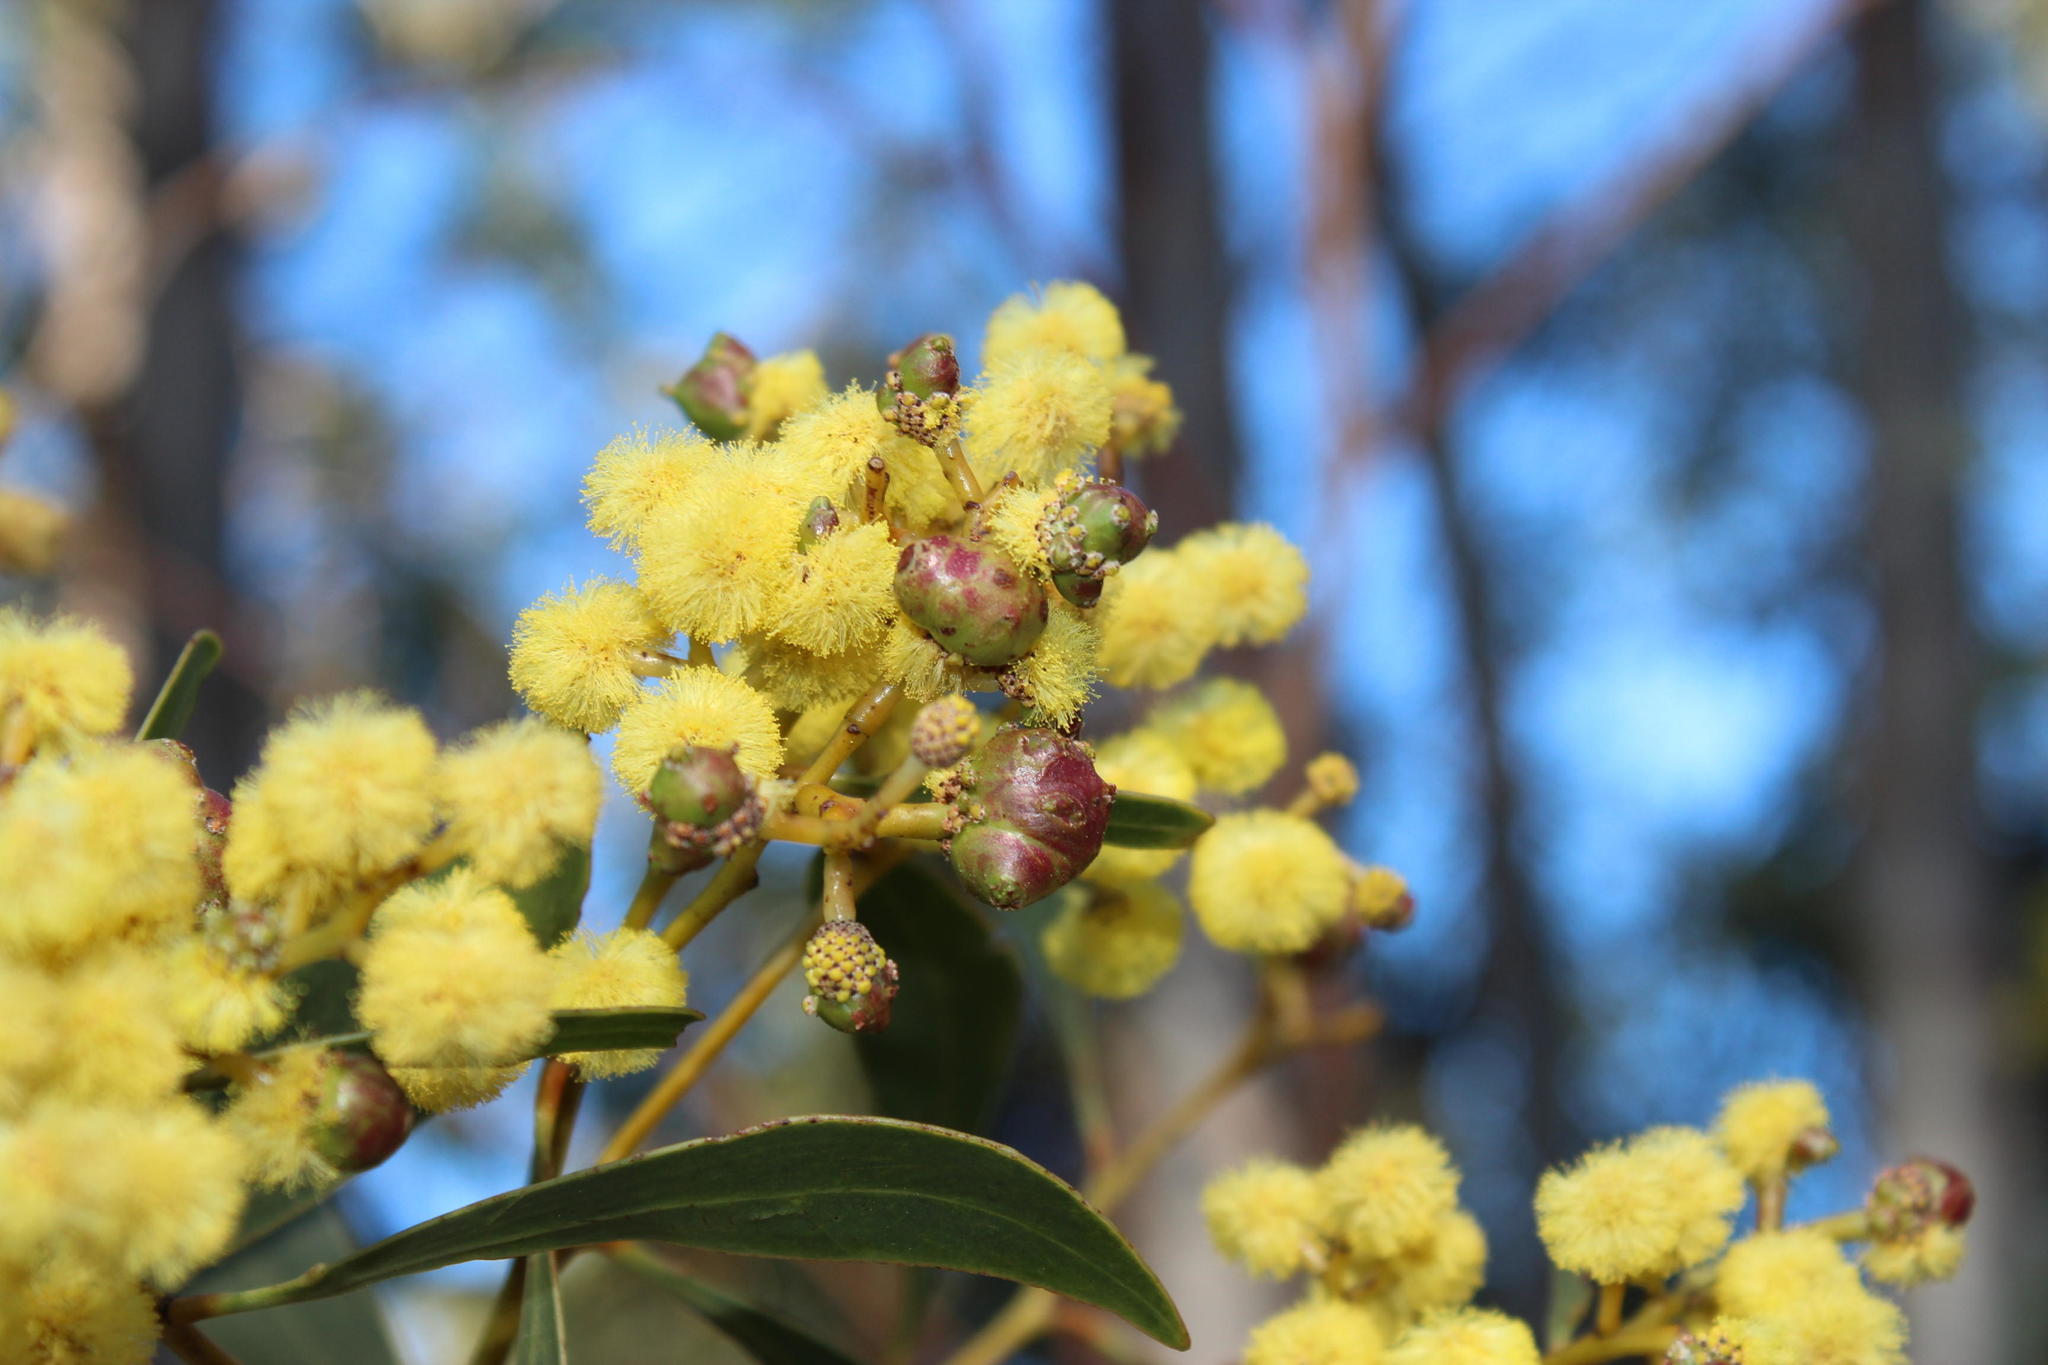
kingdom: Animalia
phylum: Arthropoda
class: Insecta
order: Hymenoptera
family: Pteromalidae
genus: Trichilogaster
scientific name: Trichilogaster signiventris
